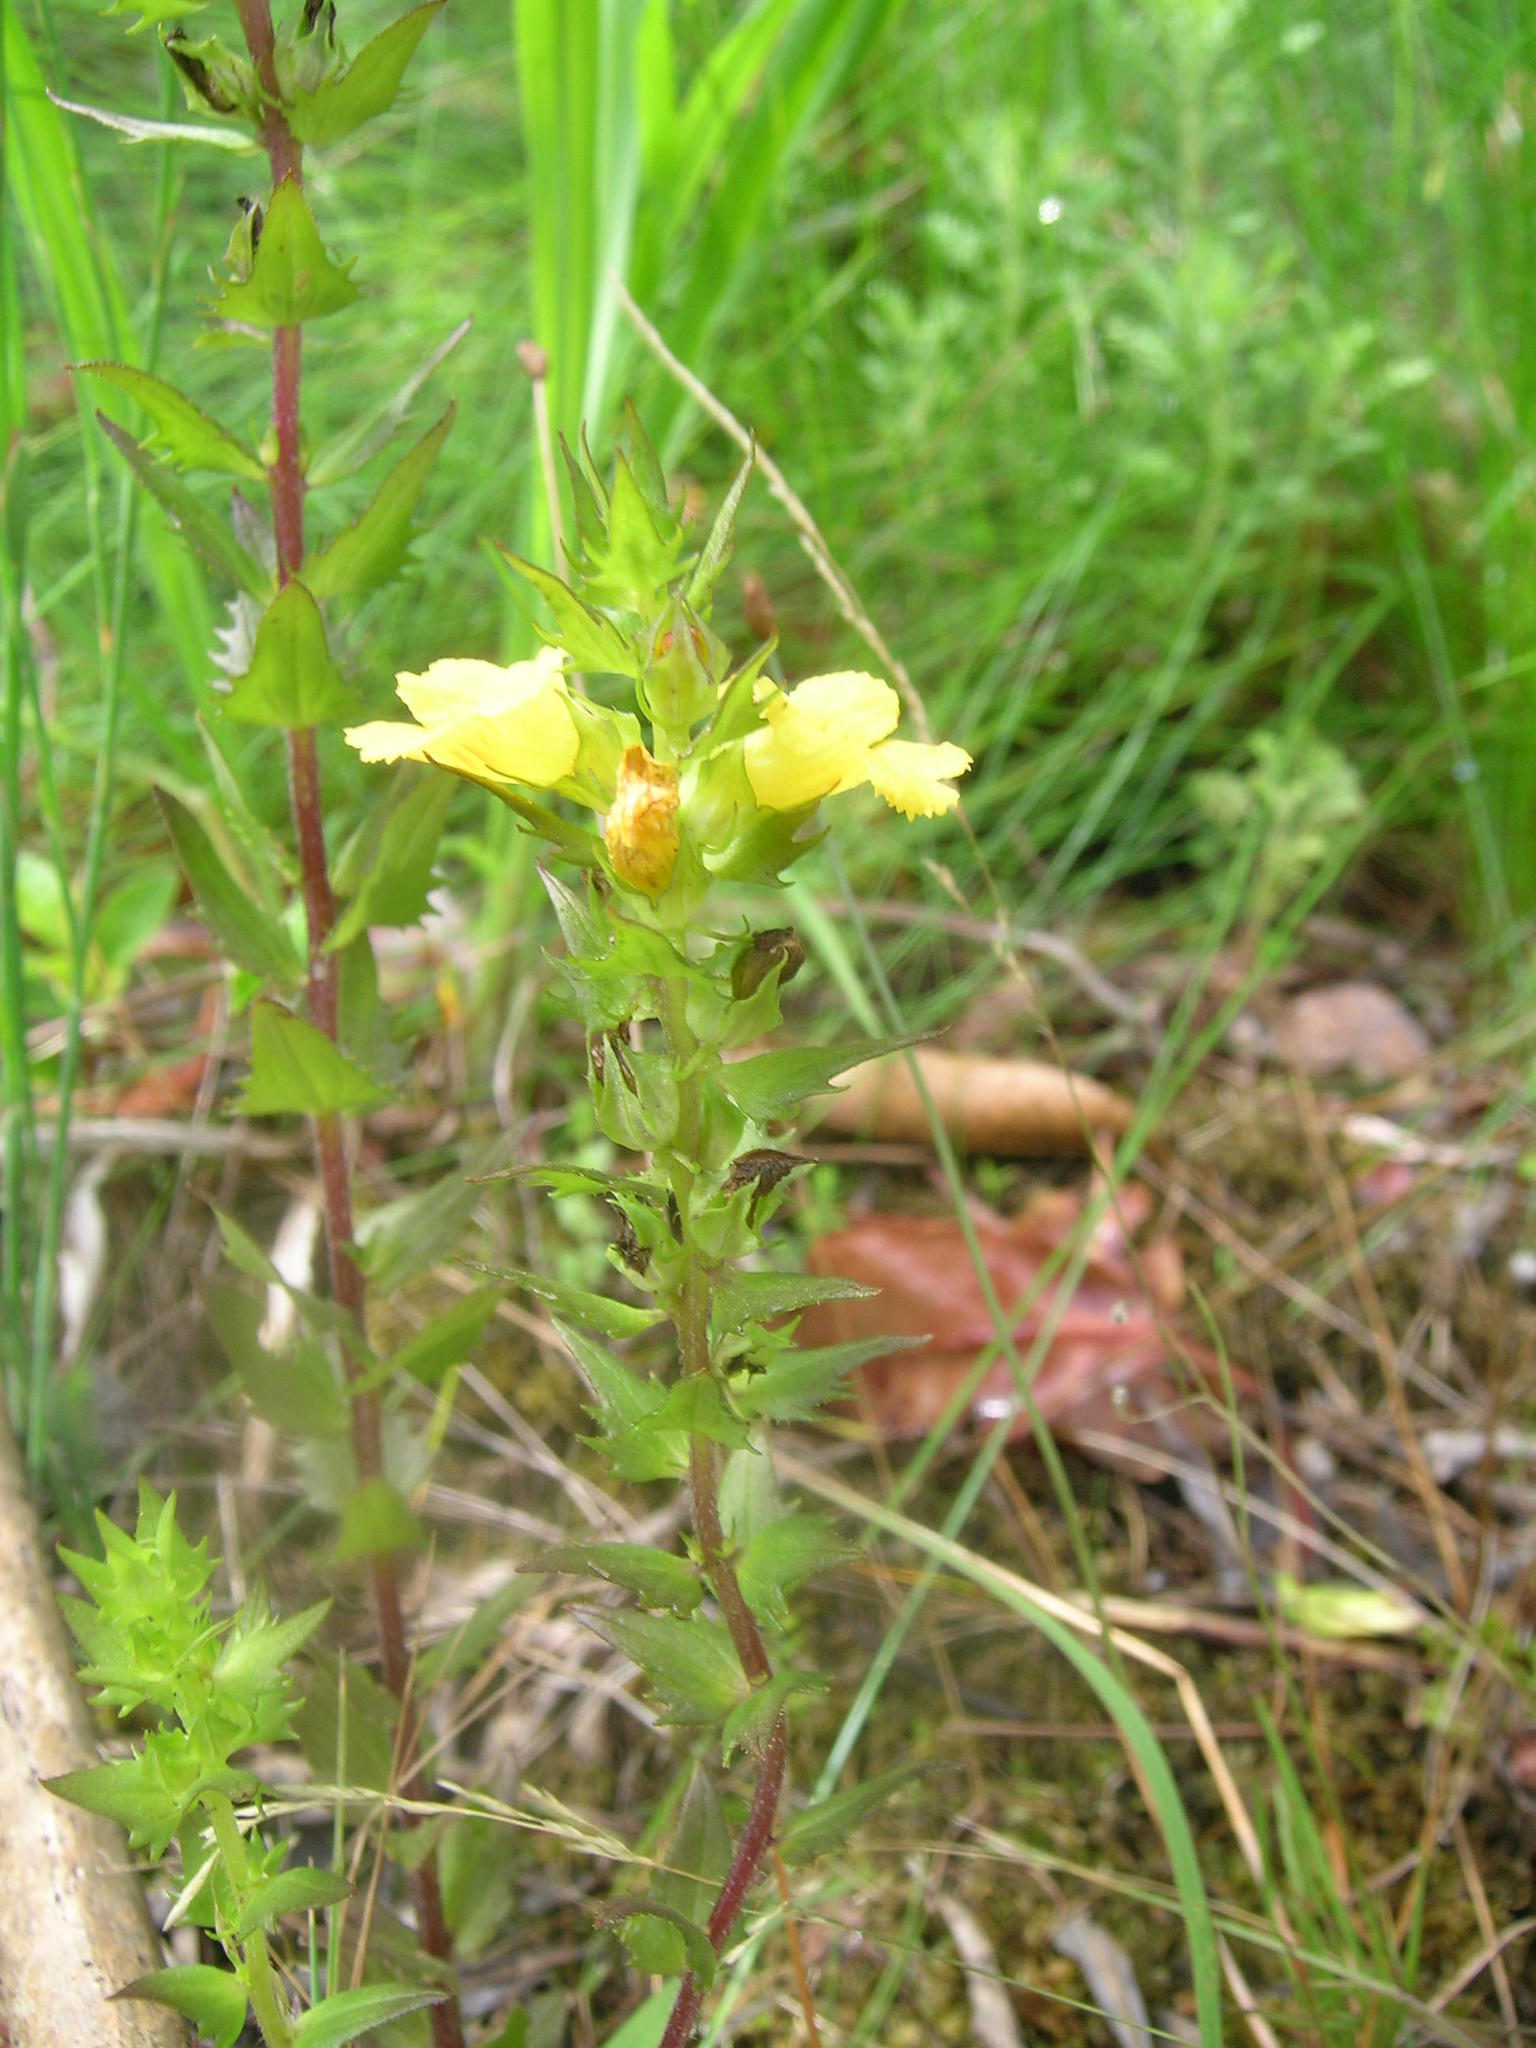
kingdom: Plantae
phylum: Tracheophyta
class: Magnoliopsida
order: Lamiales
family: Orobanchaceae
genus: Alectra
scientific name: Alectra sessiliflora
